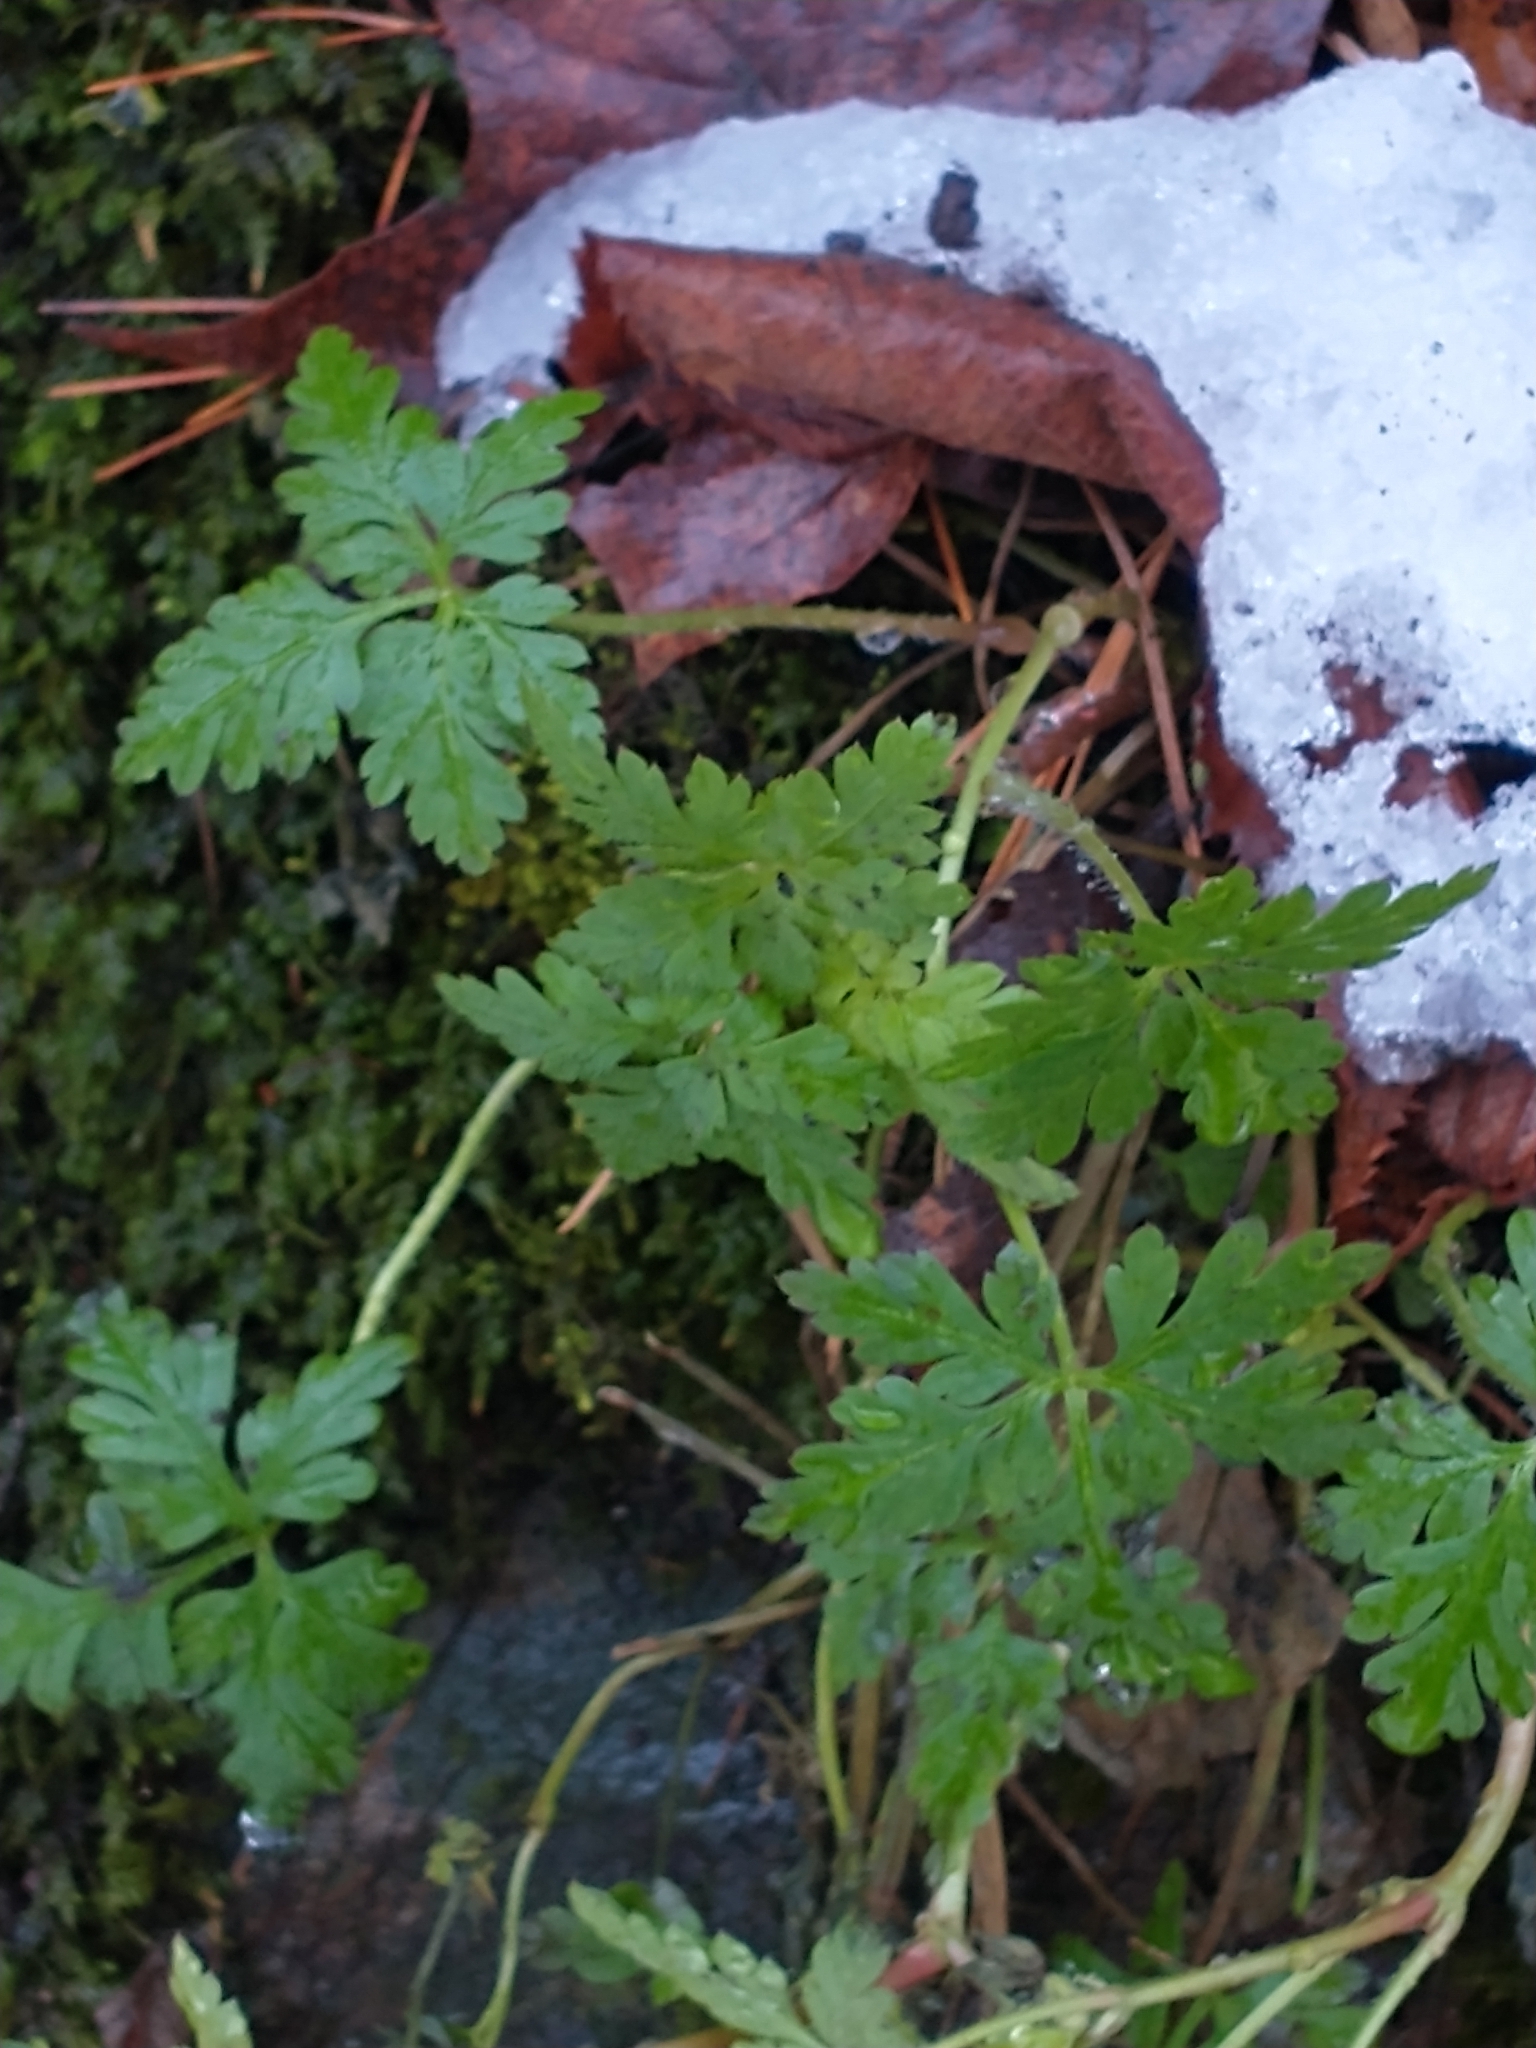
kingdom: Plantae
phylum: Tracheophyta
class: Magnoliopsida
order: Geraniales
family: Geraniaceae
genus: Geranium
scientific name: Geranium robertianum
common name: Herb-robert
